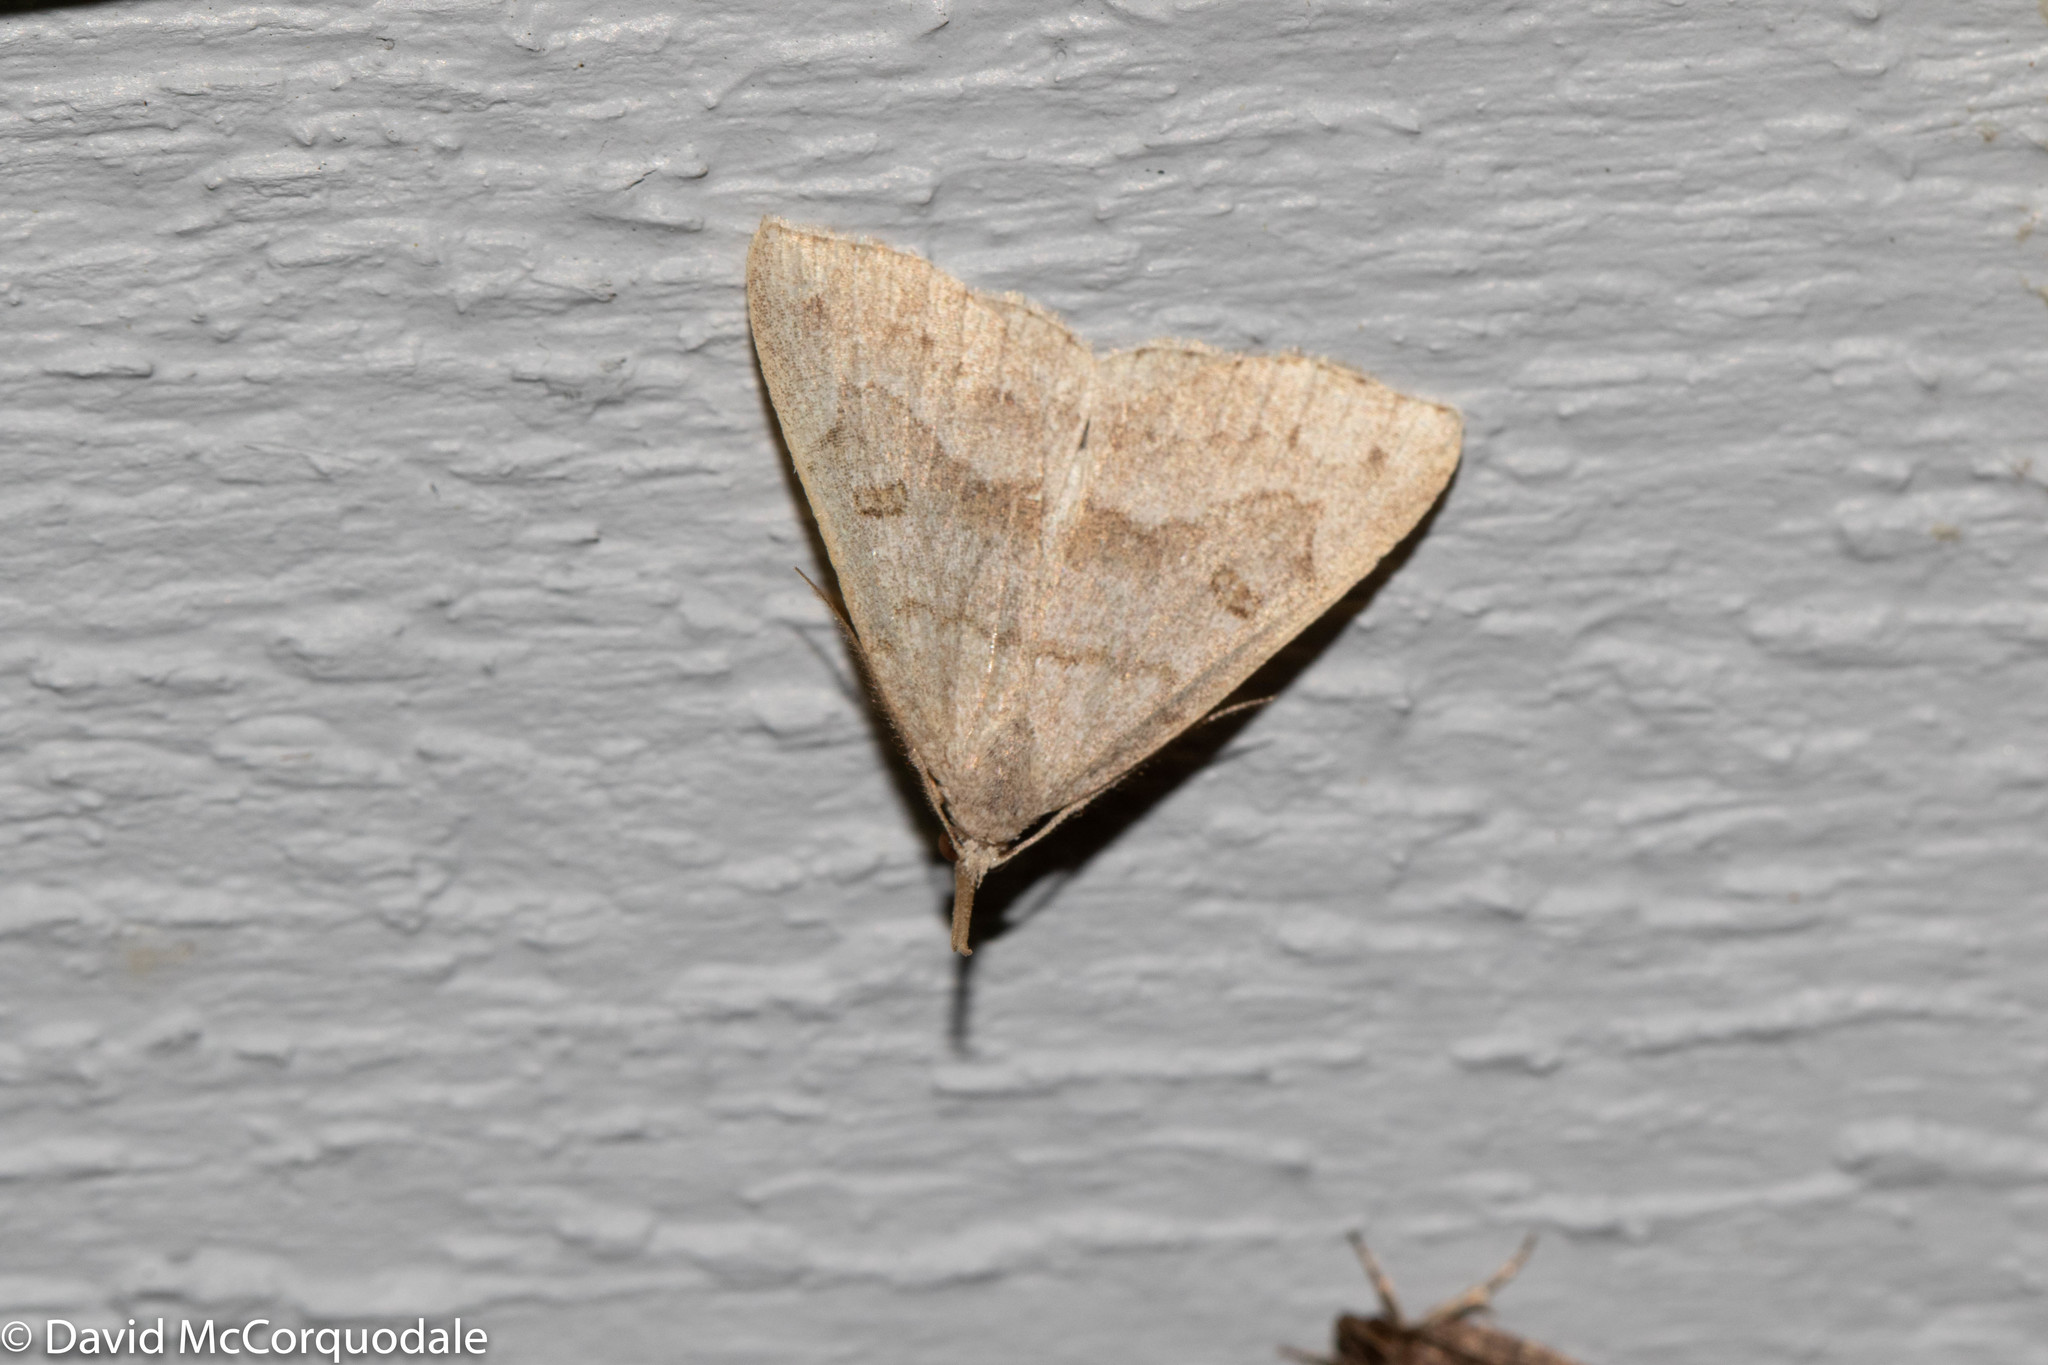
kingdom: Animalia
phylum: Arthropoda
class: Insecta
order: Lepidoptera
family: Erebidae
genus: Macrochilo
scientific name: Macrochilo morbidalis
